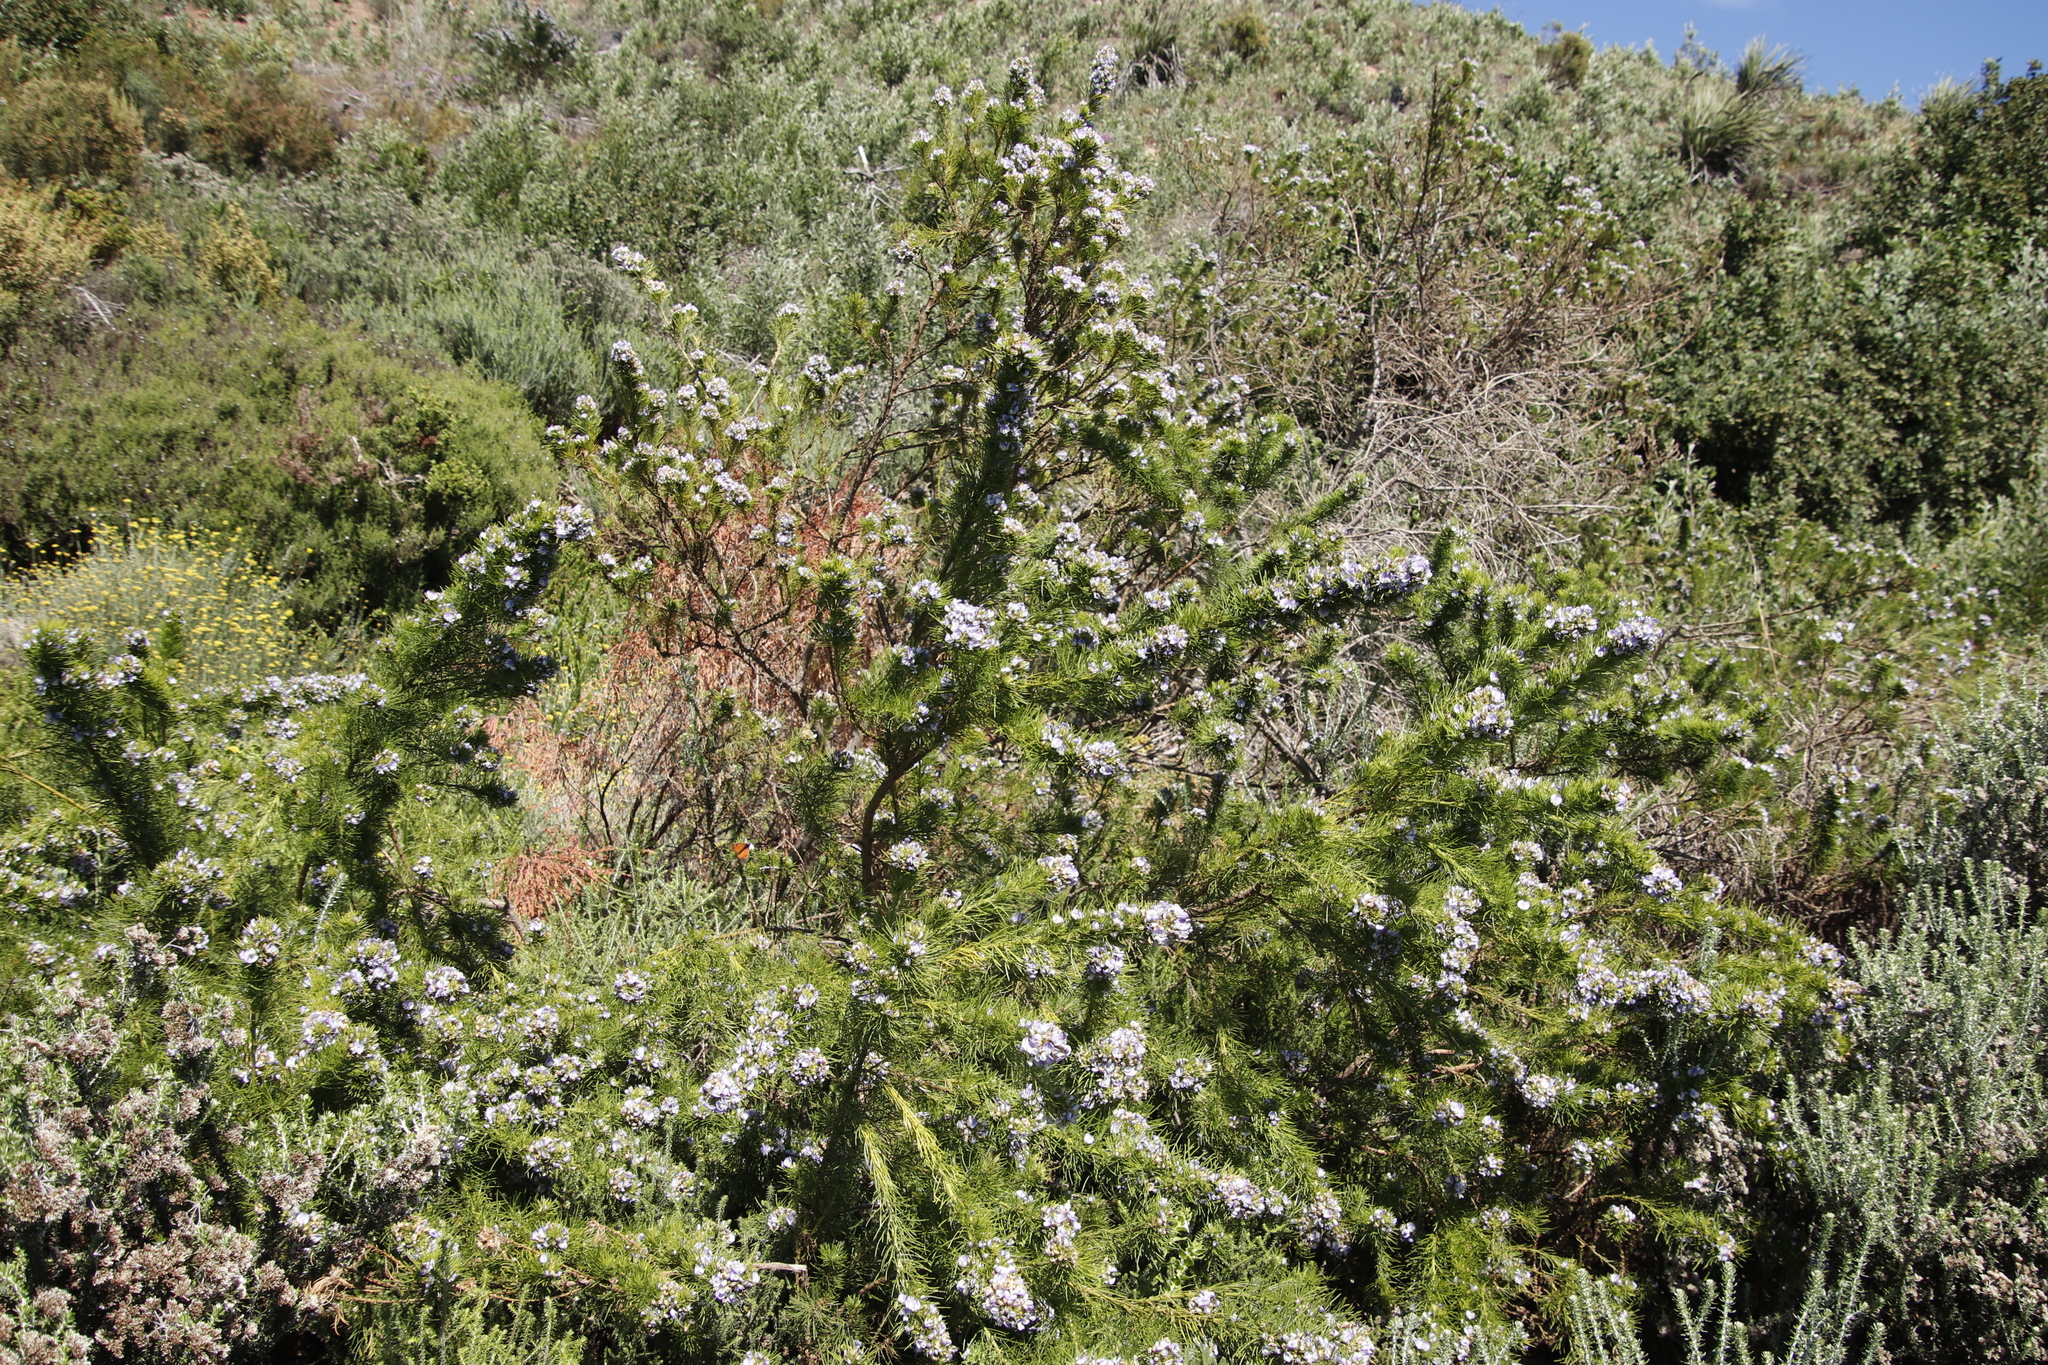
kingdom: Plantae
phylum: Tracheophyta
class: Magnoliopsida
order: Fabales
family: Fabaceae
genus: Psoralea
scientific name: Psoralea pinnata
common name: African scurfpea
